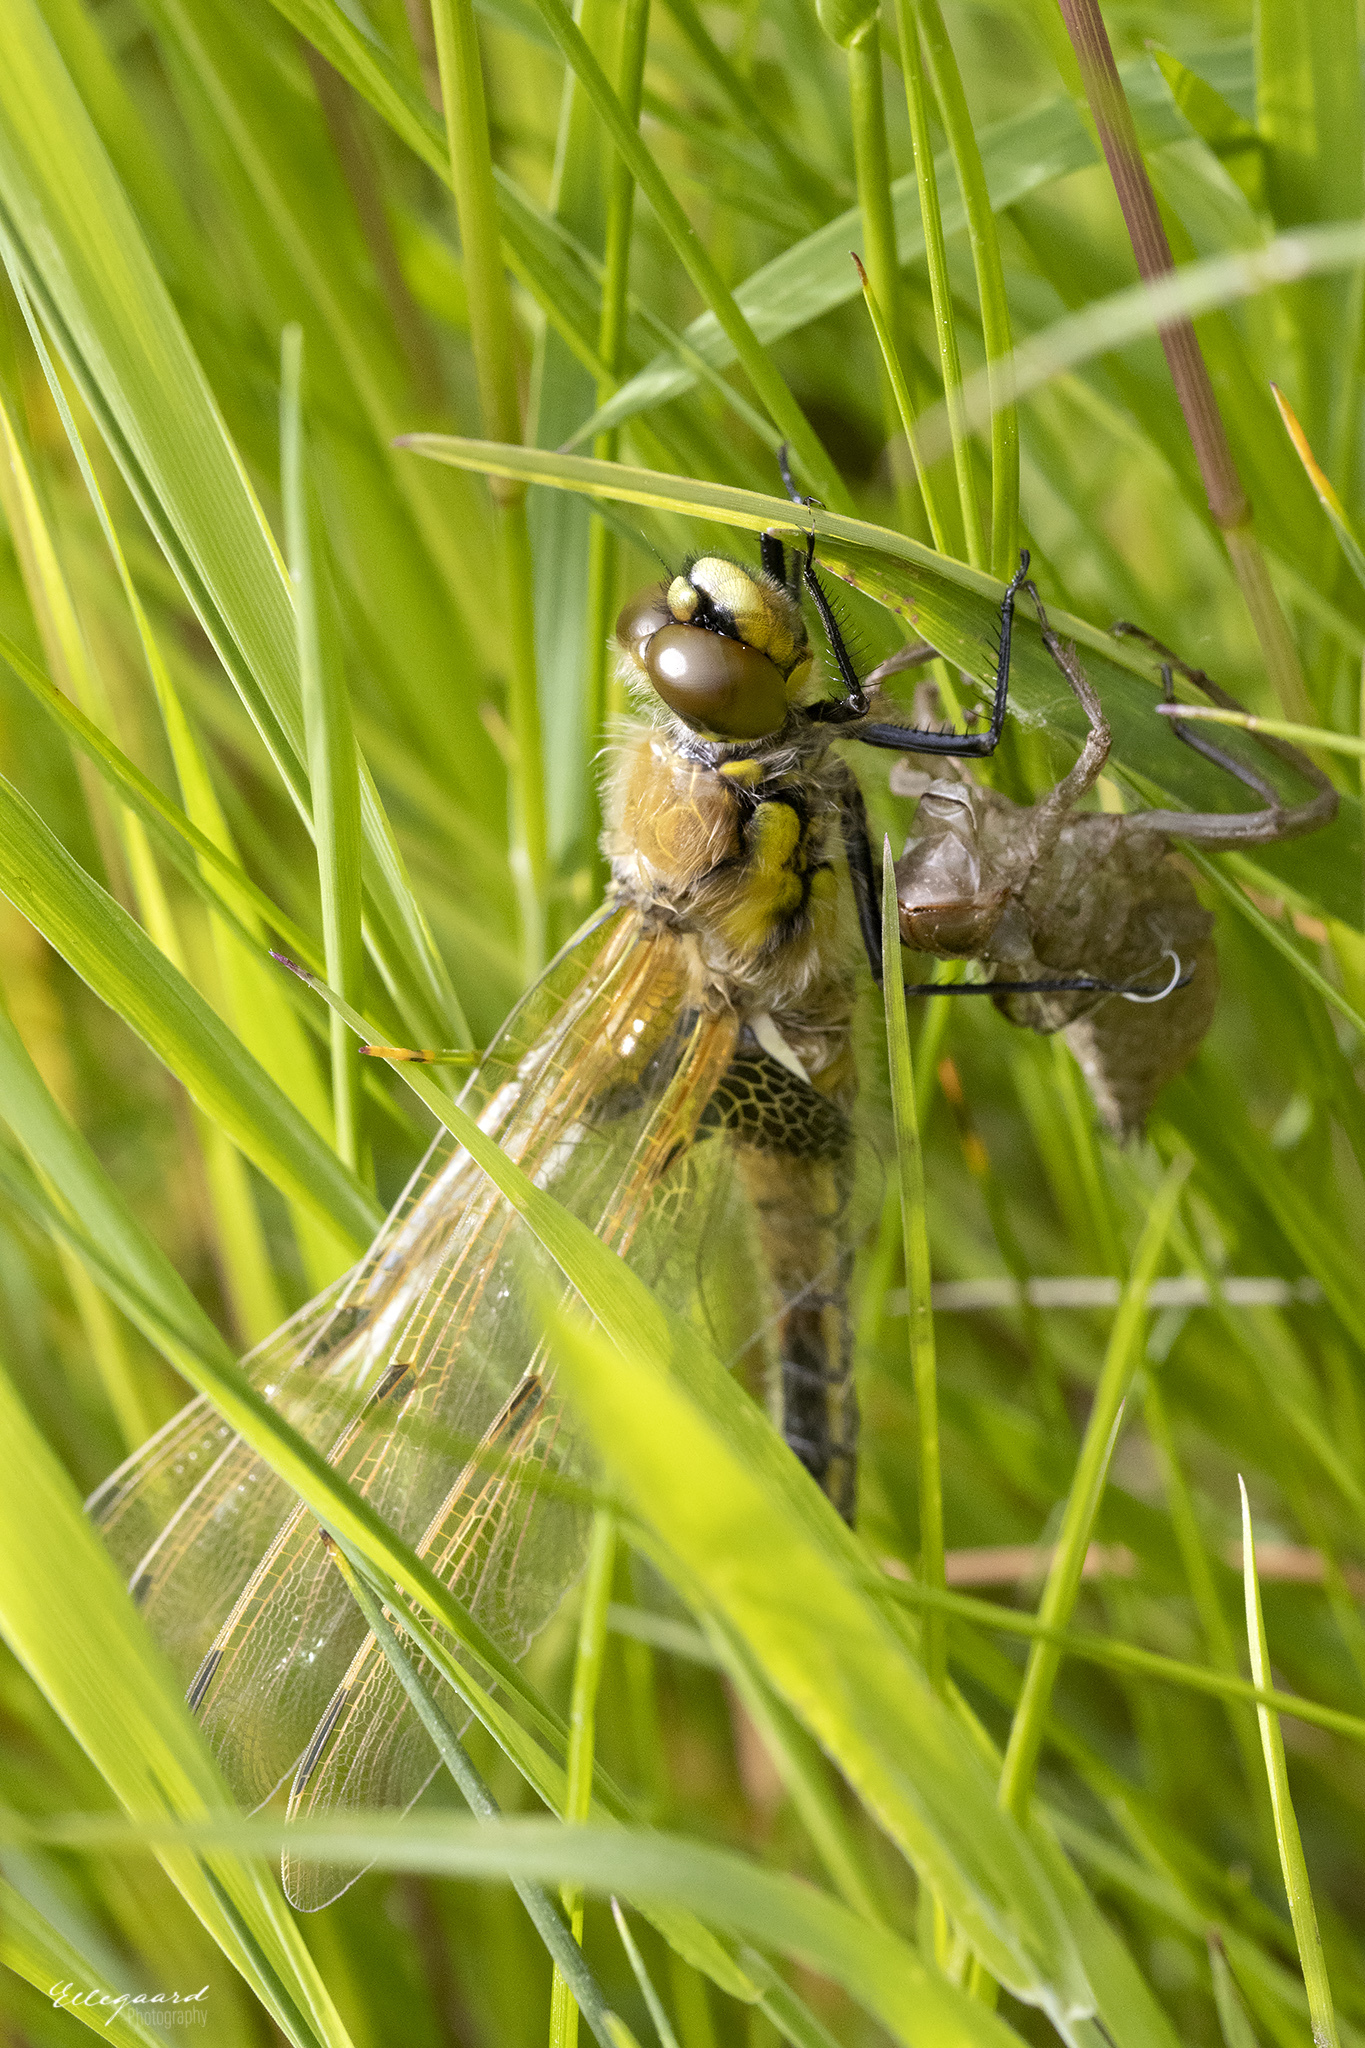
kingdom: Animalia
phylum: Arthropoda
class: Insecta
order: Odonata
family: Libellulidae
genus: Libellula
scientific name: Libellula quadrimaculata
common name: Four-spotted chaser
